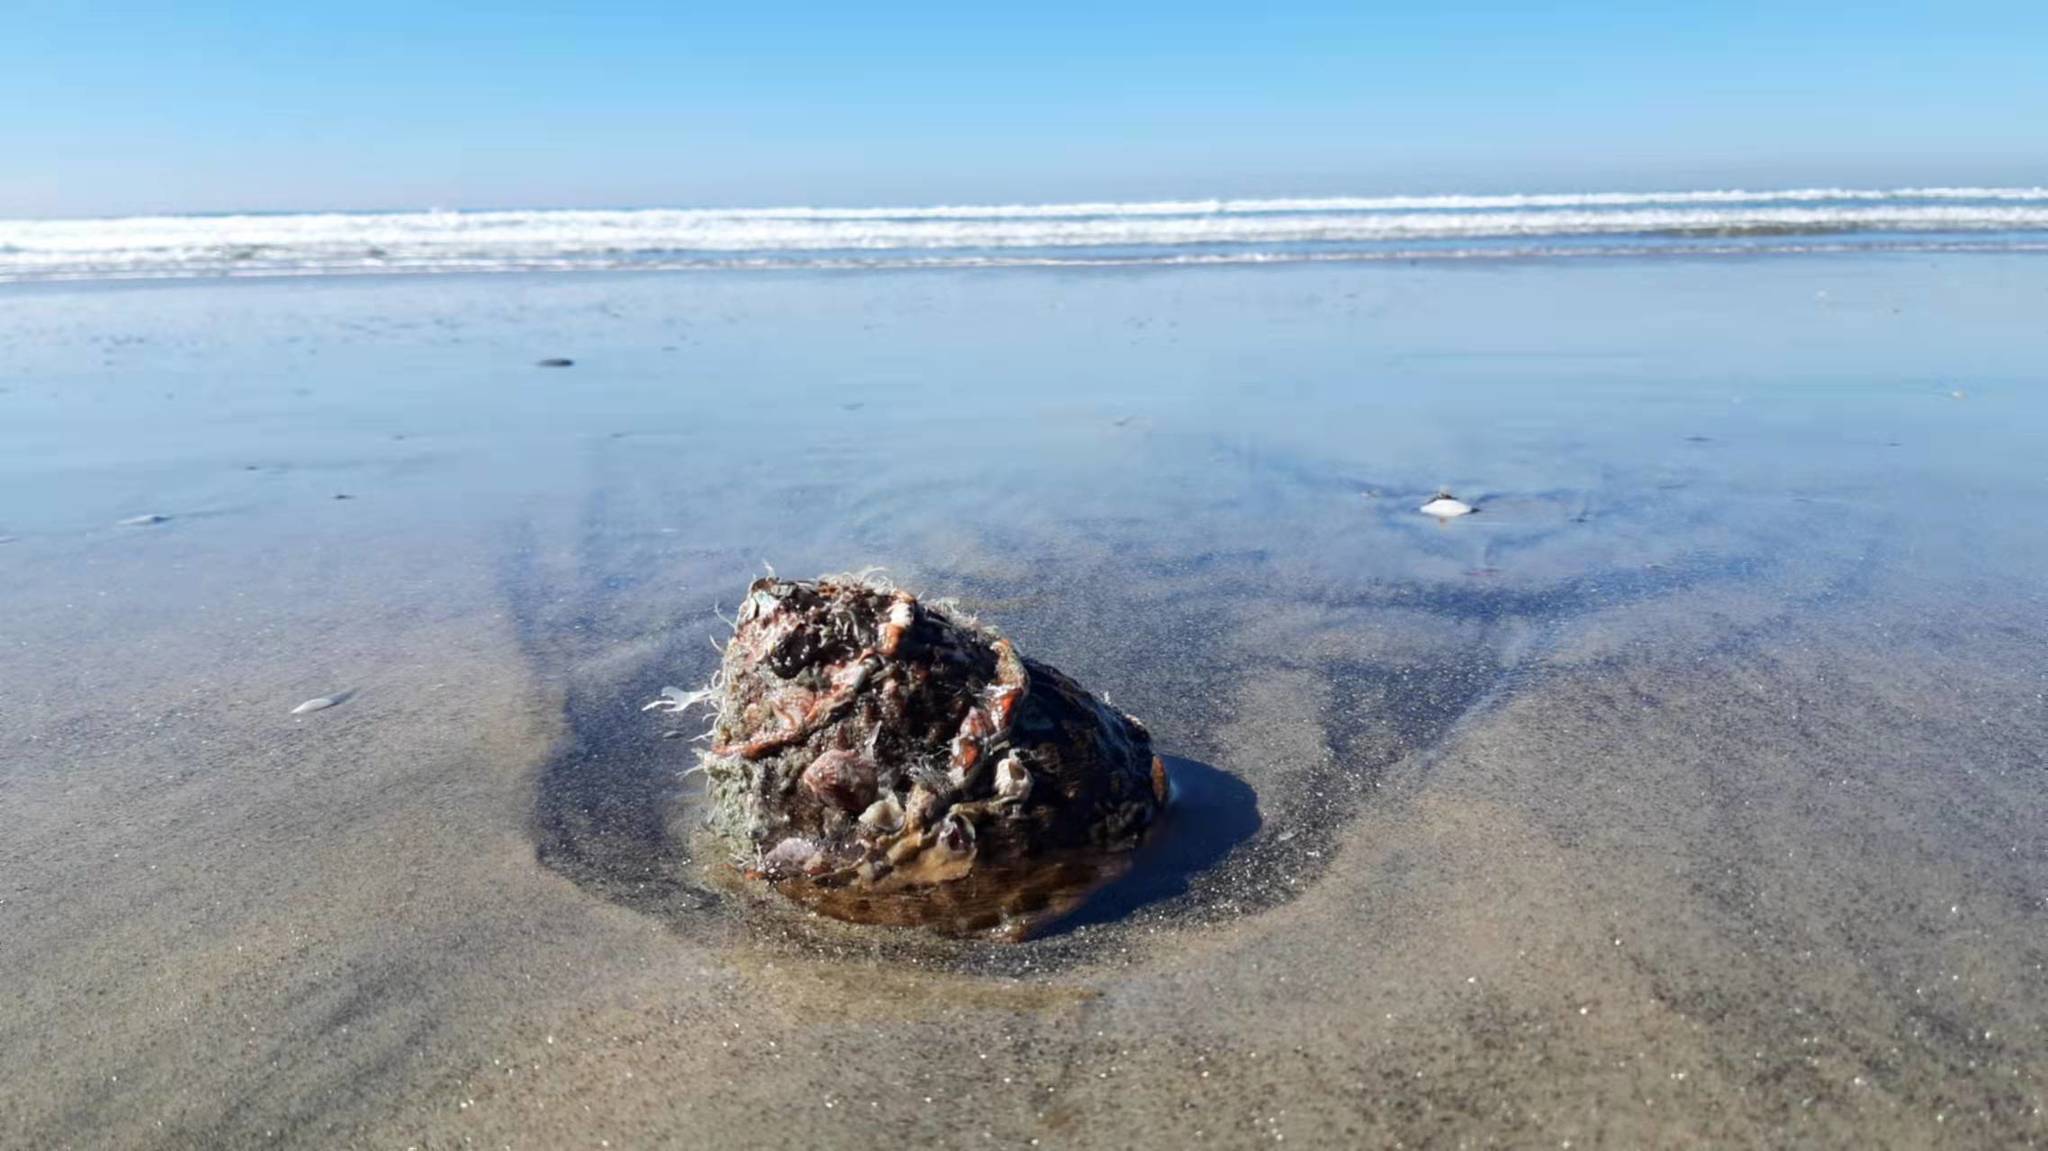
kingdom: Animalia
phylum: Mollusca
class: Gastropoda
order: Trochida
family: Turbinidae
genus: Megastraea
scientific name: Megastraea undosa
